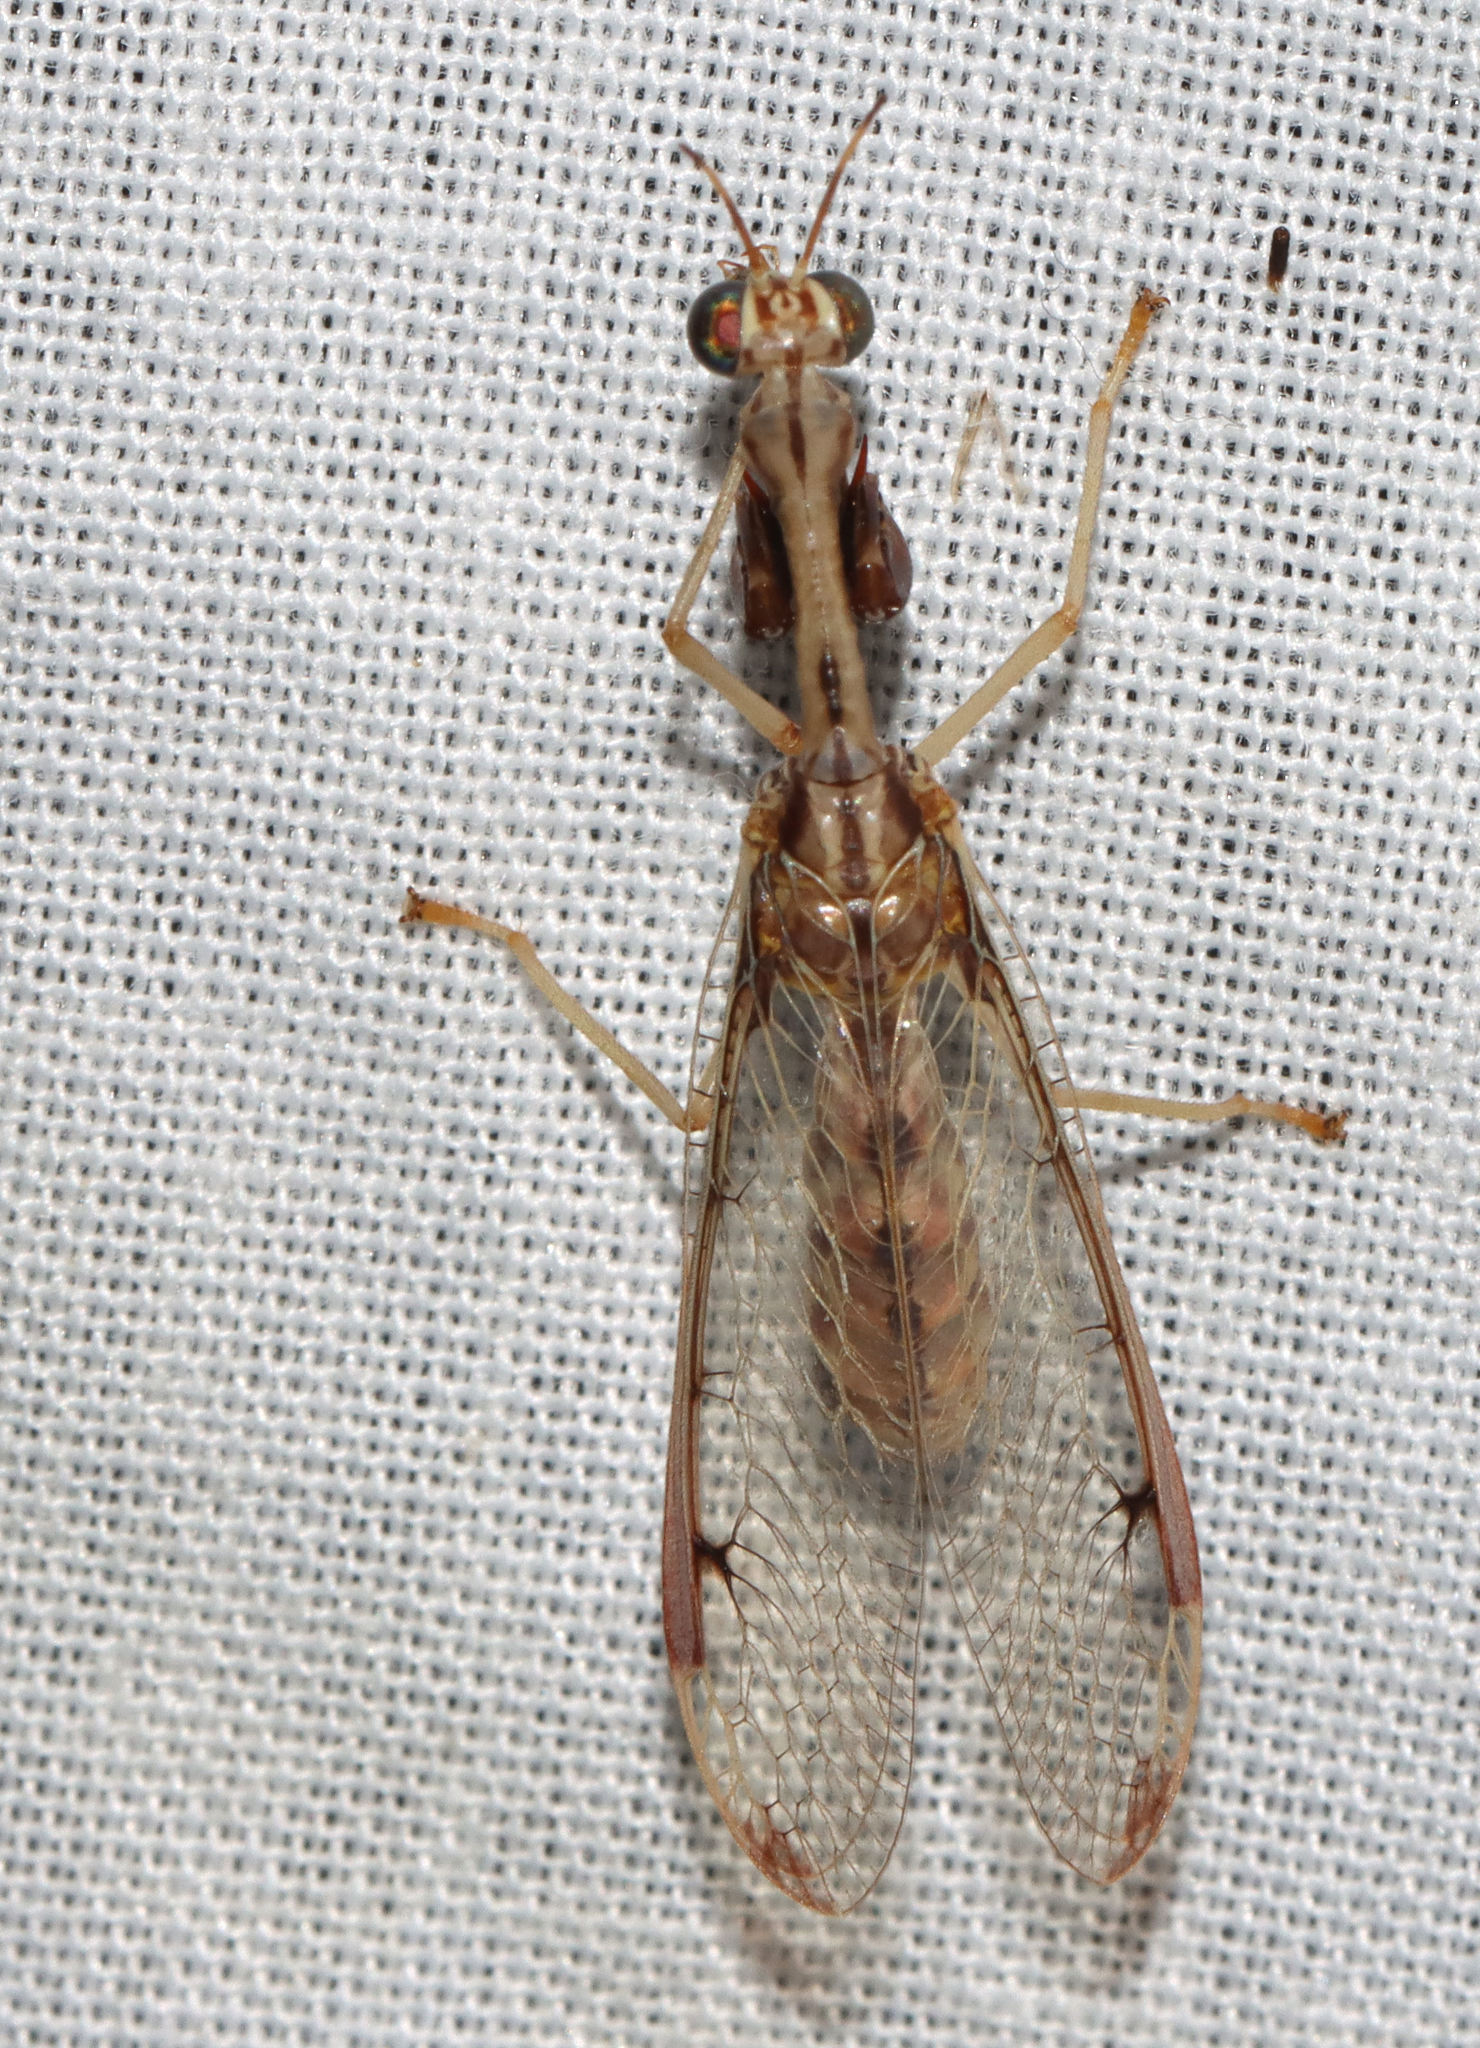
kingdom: Animalia
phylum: Arthropoda
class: Insecta
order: Neuroptera
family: Mantispidae
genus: Dicromantispa
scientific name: Dicromantispa interrupta
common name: Four-spotted mantidfly
